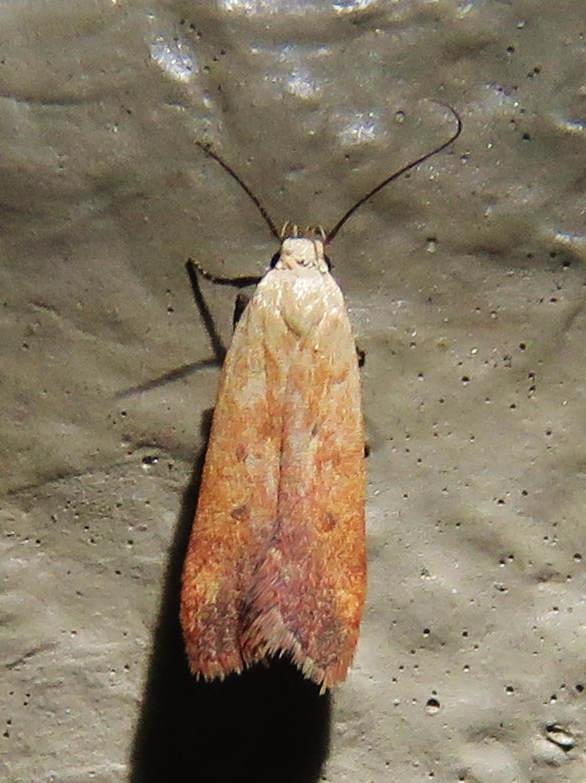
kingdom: Animalia
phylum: Arthropoda
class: Insecta
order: Lepidoptera
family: Gelechiidae
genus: Anacampsis
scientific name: Anacampsis fullonella
